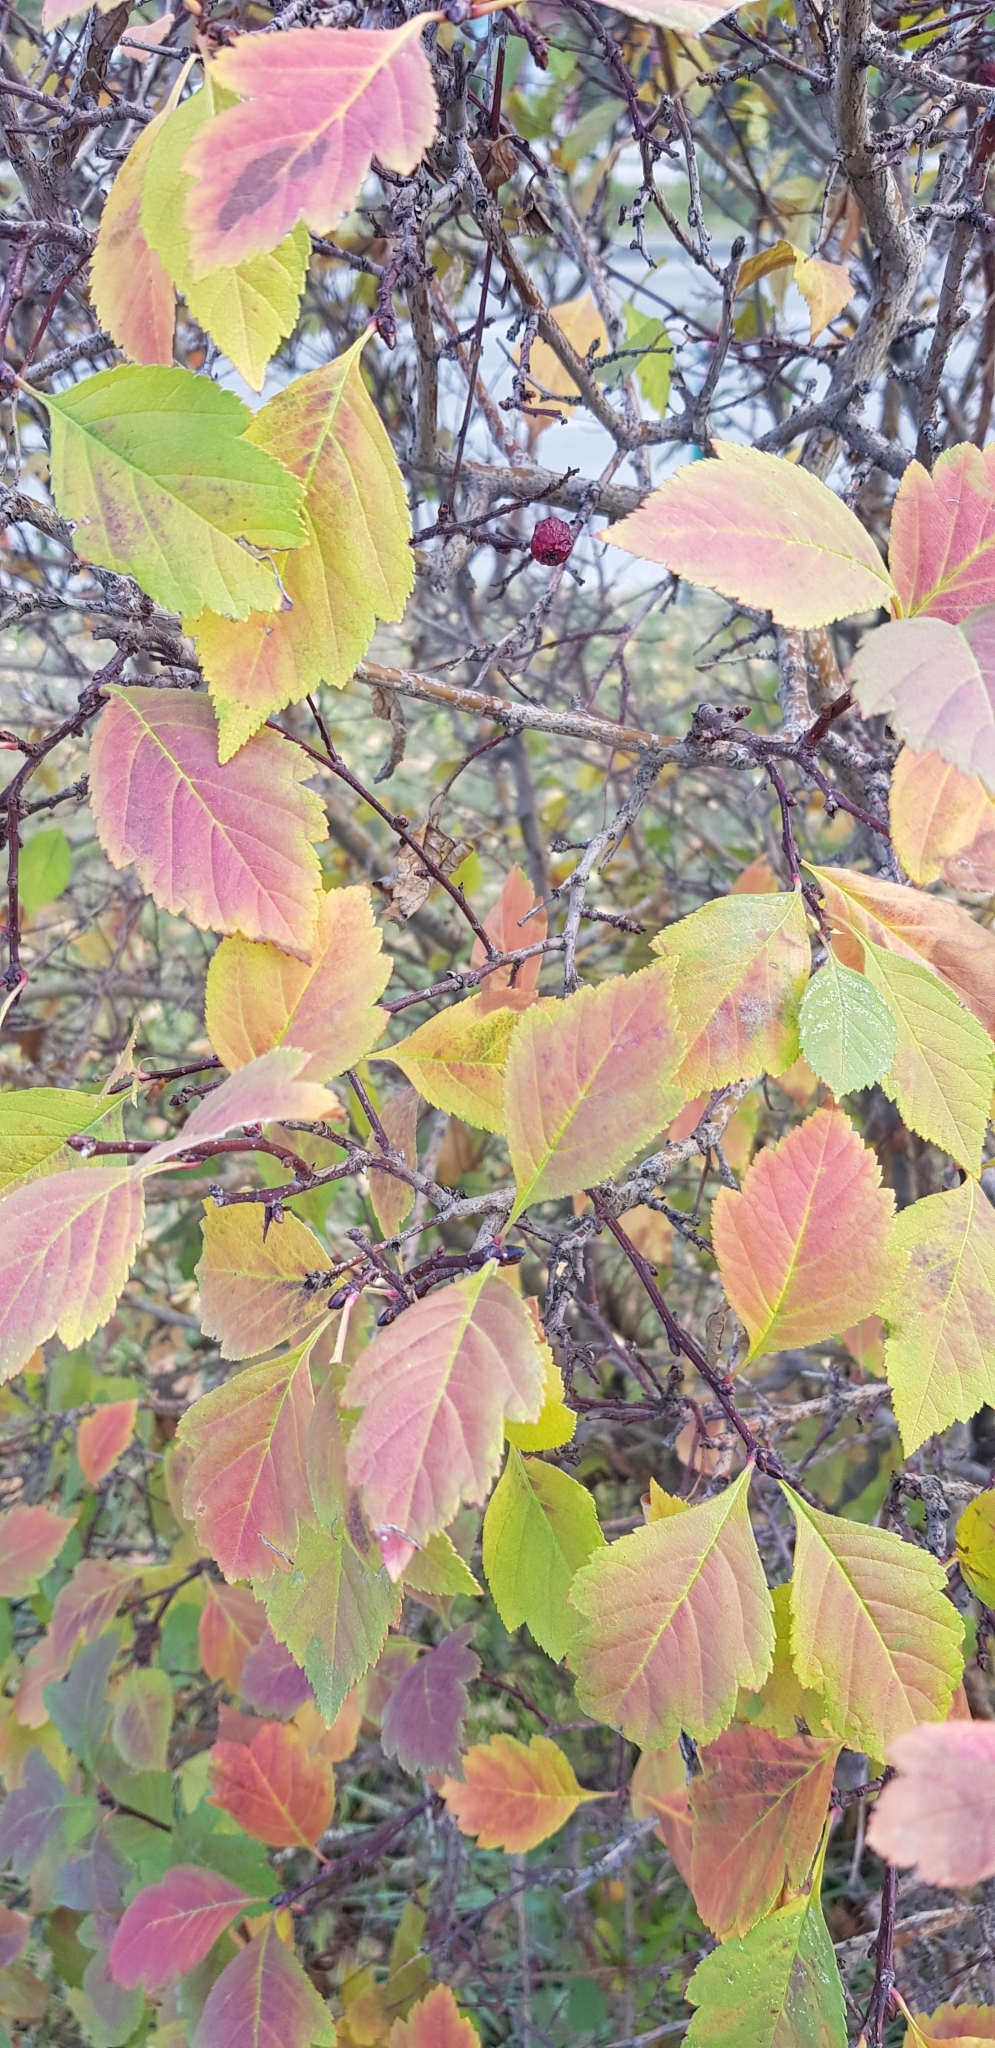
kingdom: Plantae
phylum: Tracheophyta
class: Magnoliopsida
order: Rosales
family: Rosaceae
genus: Crataegus
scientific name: Crataegus sanguinea
